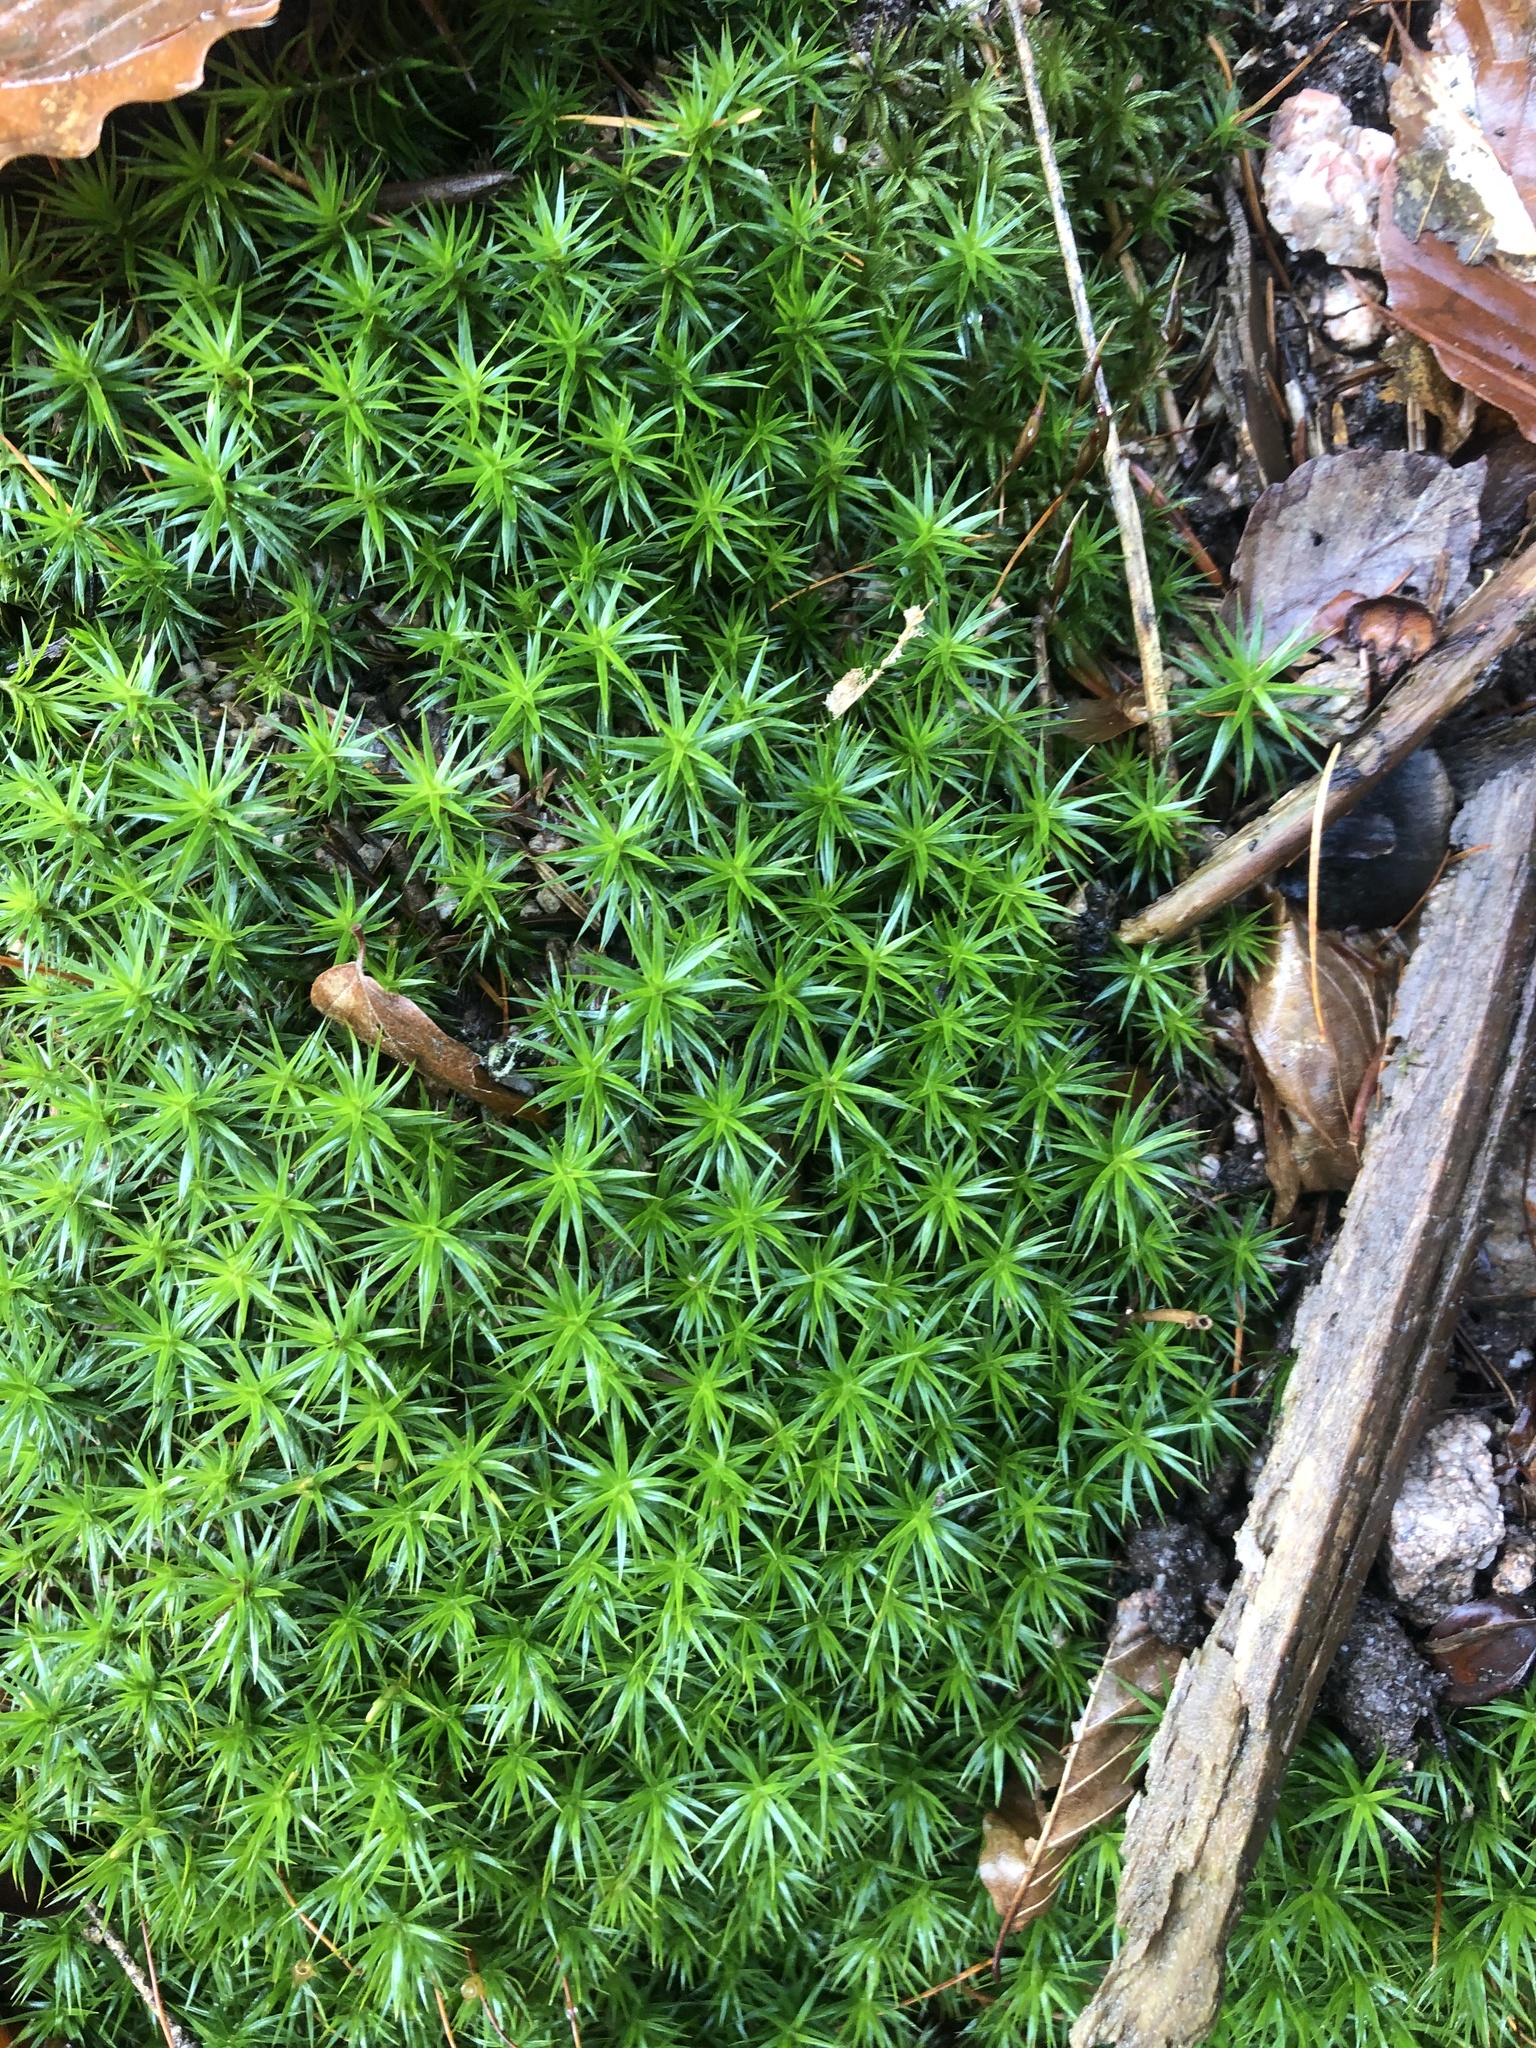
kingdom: Plantae
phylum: Bryophyta
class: Polytrichopsida
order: Polytrichales
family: Polytrichaceae
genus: Polytrichum
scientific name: Polytrichum formosum
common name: Bank haircap moss
